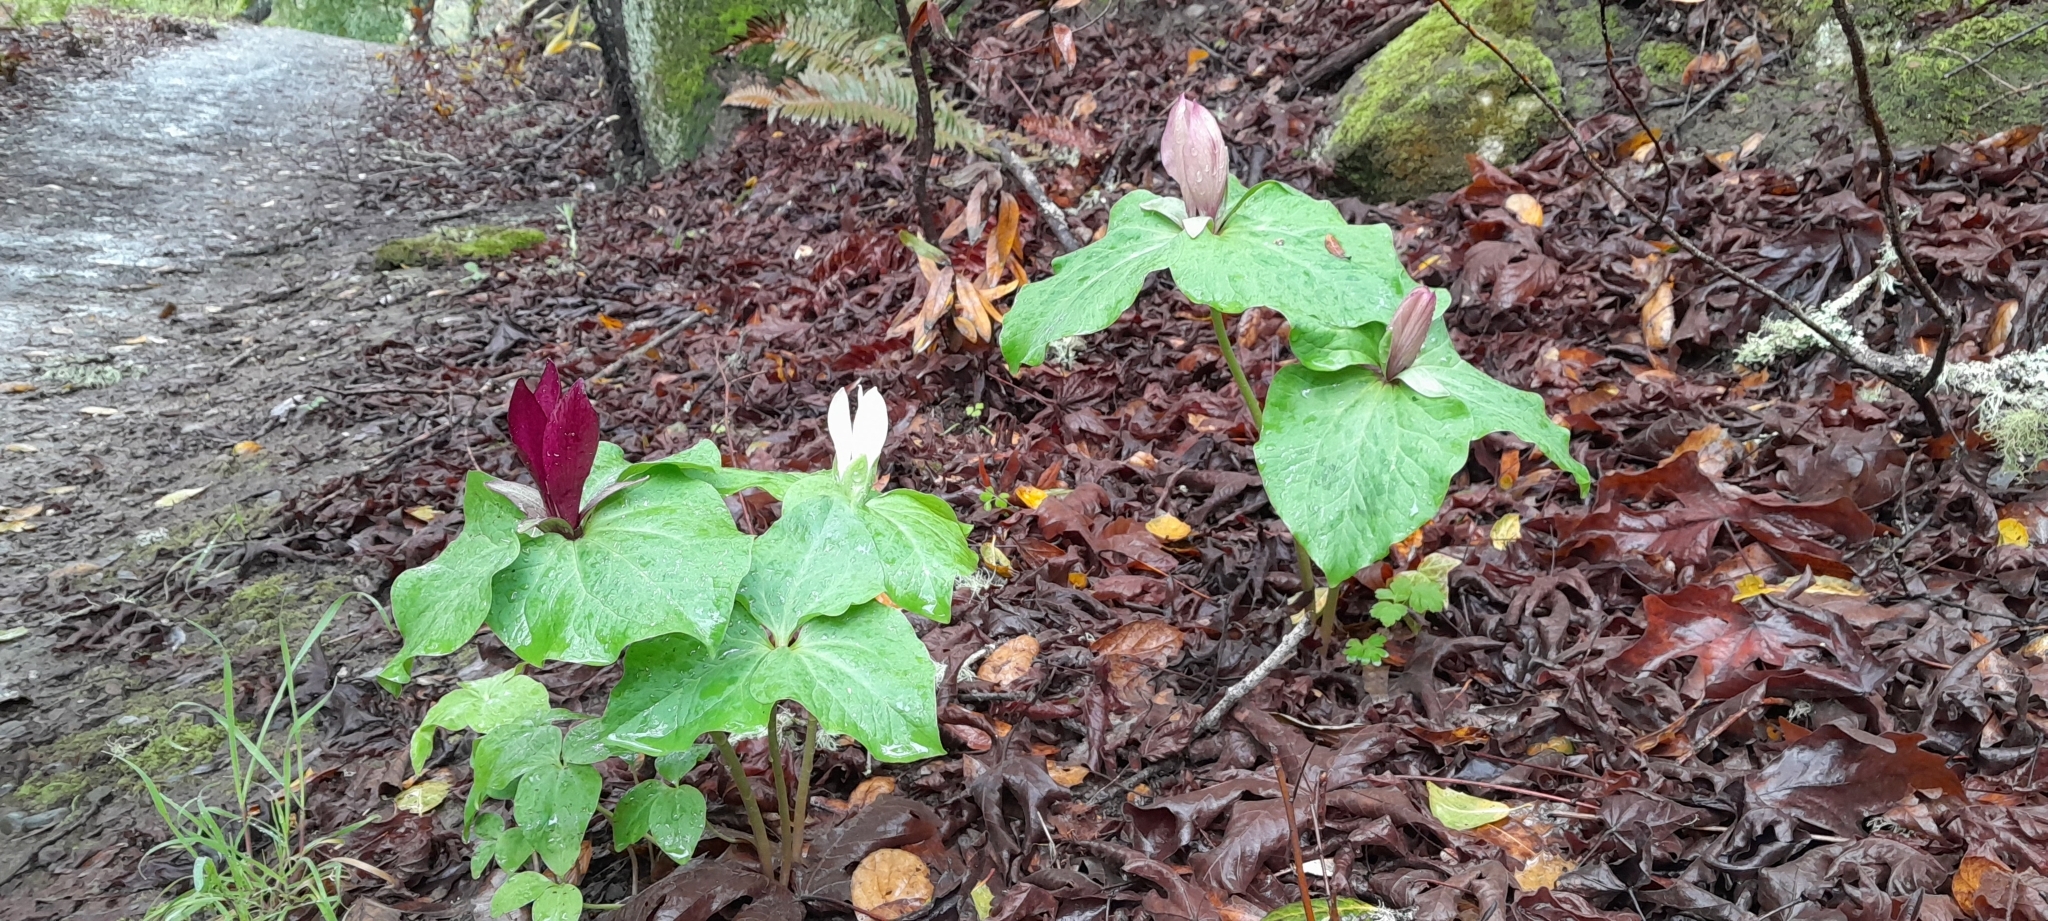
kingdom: Plantae
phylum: Tracheophyta
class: Liliopsida
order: Liliales
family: Melanthiaceae
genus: Trillium
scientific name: Trillium chloropetalum
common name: Giant trillium
